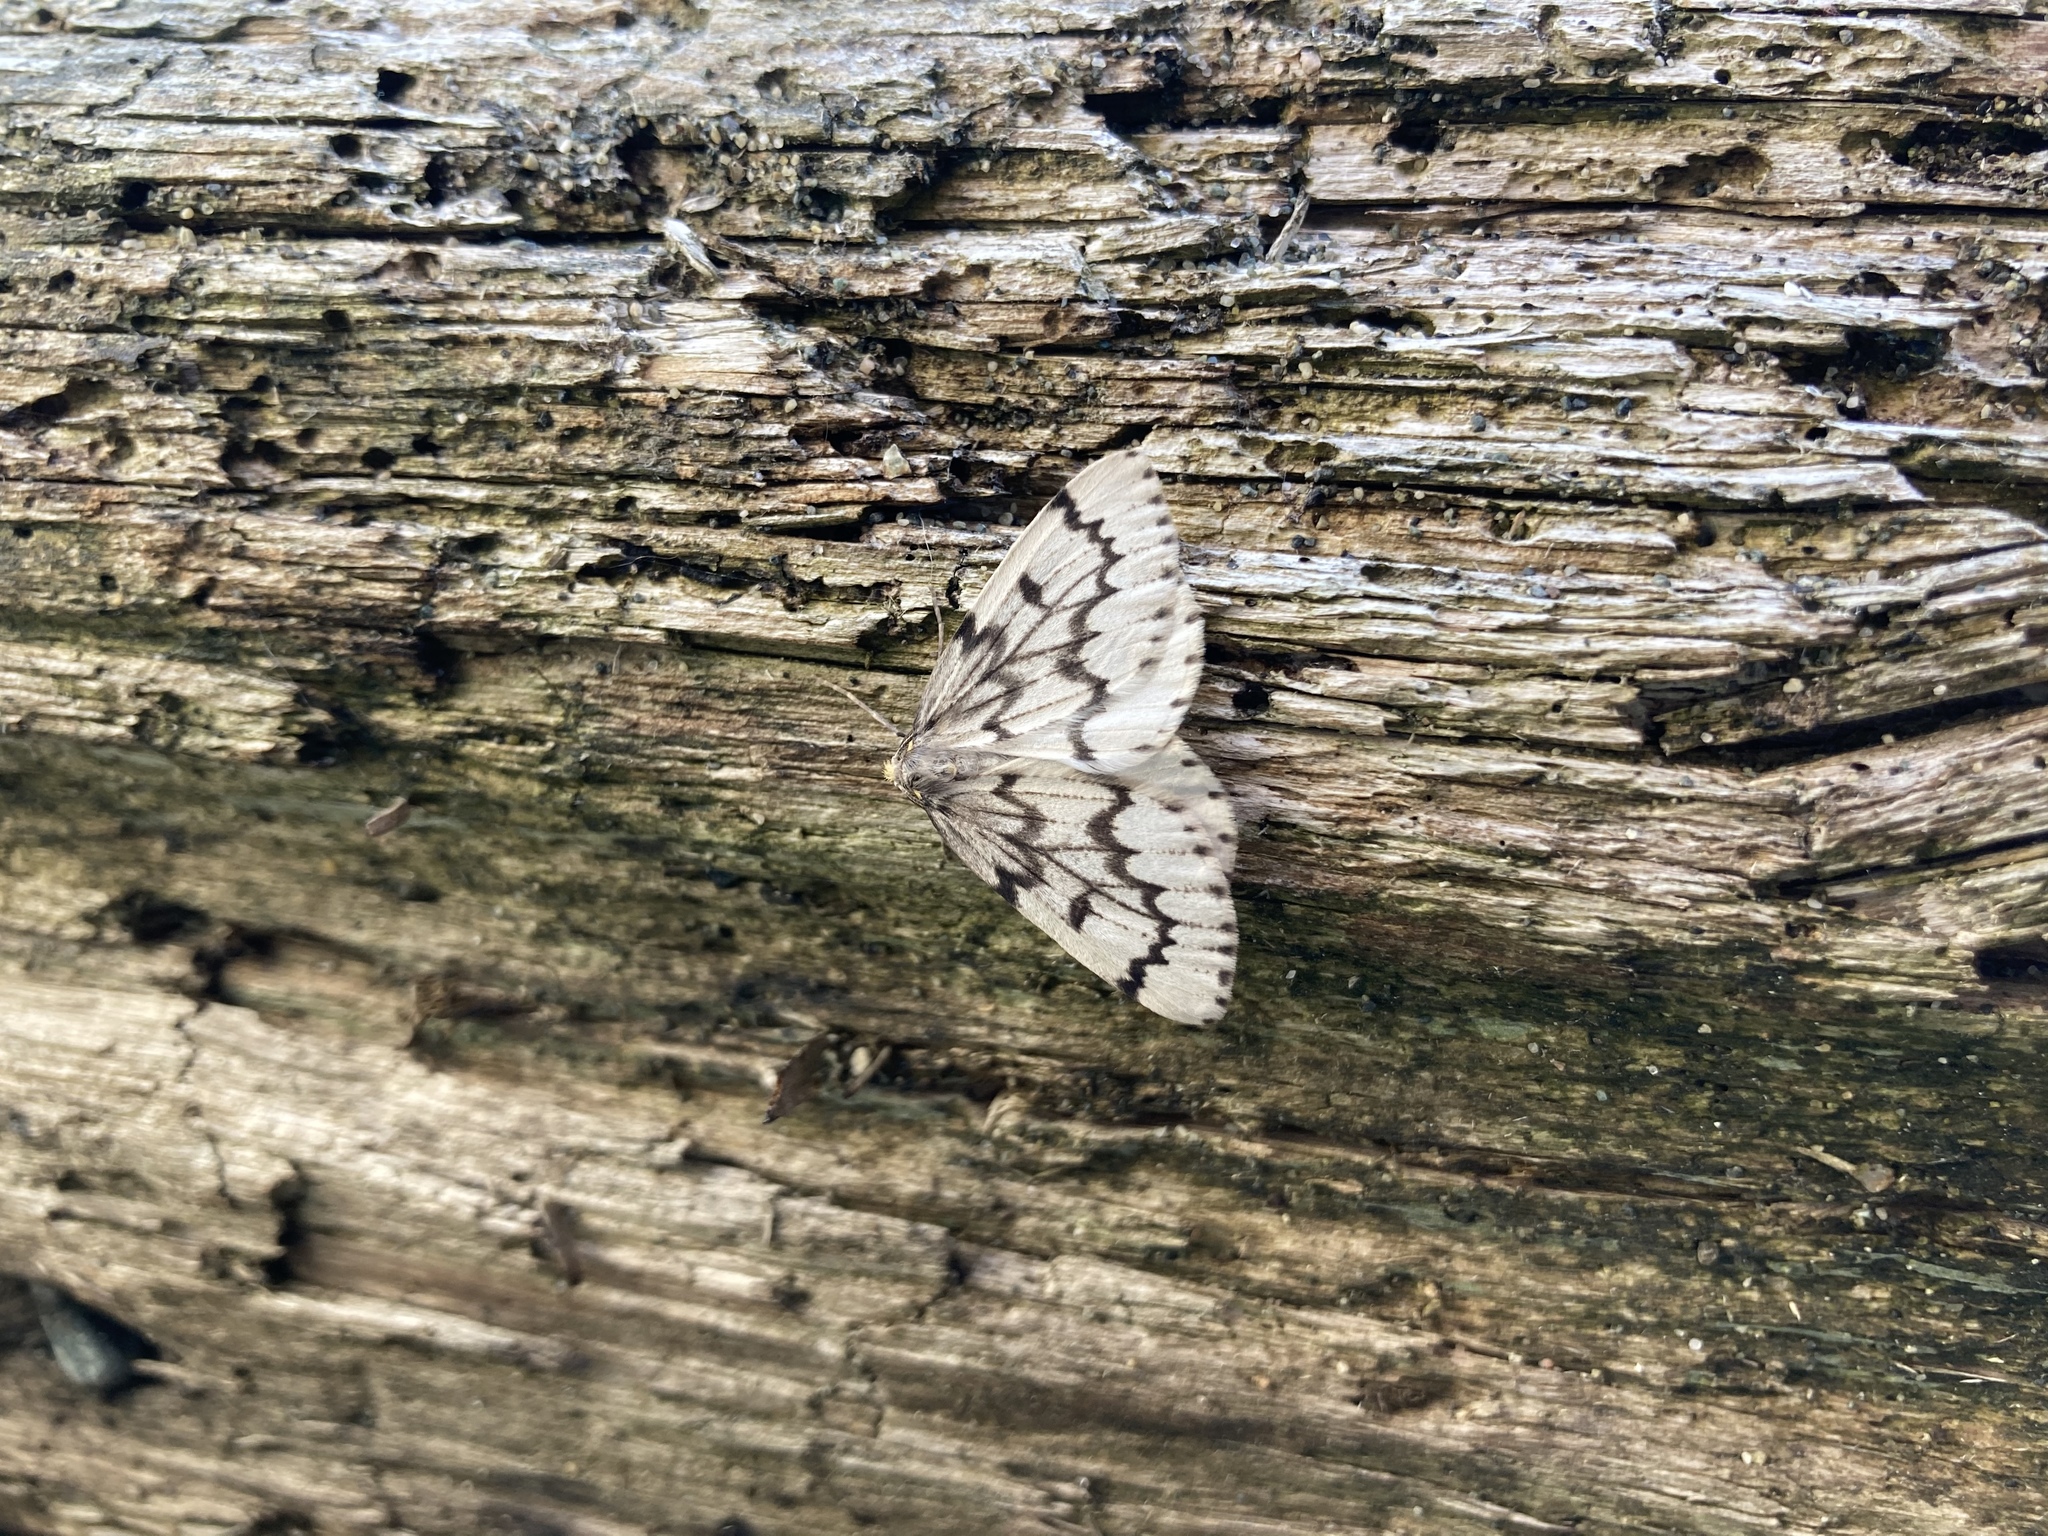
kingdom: Animalia
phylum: Arthropoda
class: Insecta
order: Lepidoptera
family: Geometridae
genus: Nepytia
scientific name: Nepytia phantasmaria
